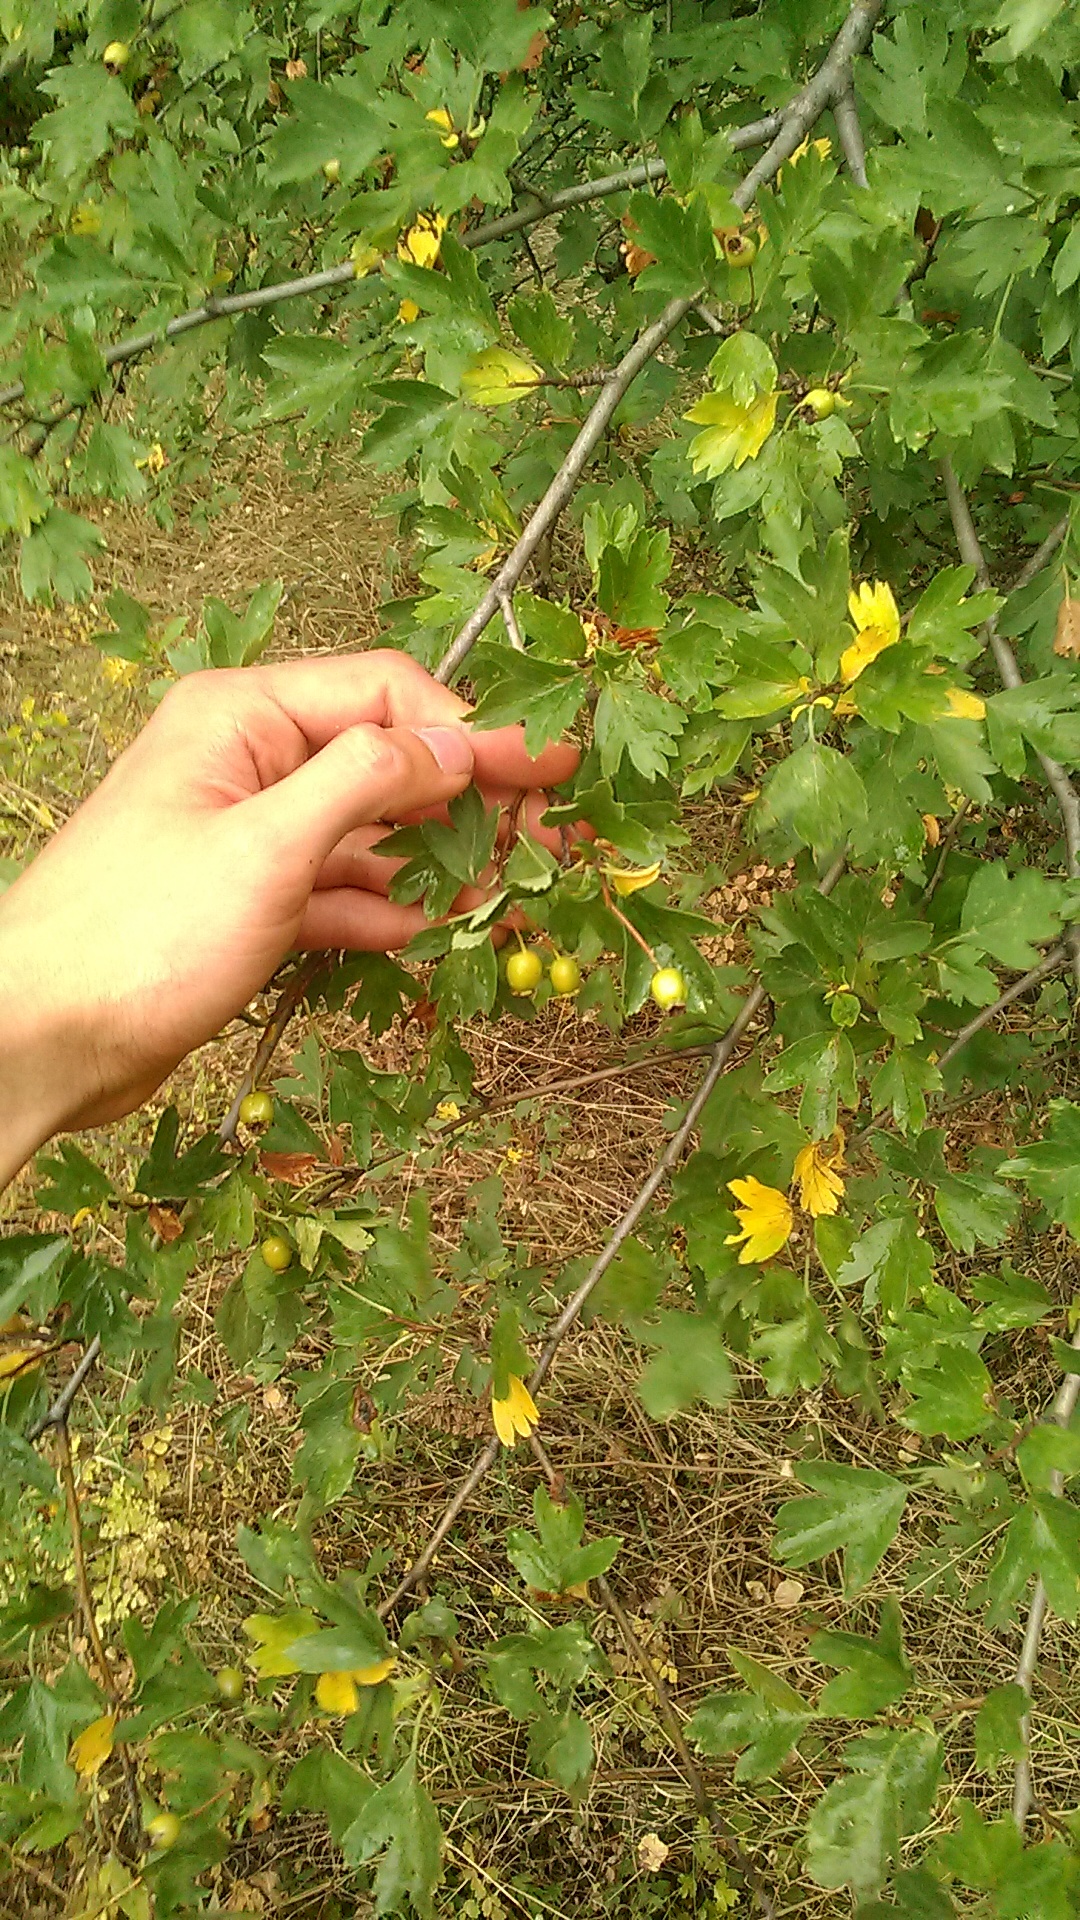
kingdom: Plantae
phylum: Tracheophyta
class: Magnoliopsida
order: Rosales
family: Rosaceae
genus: Crataegus
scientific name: Crataegus monogyna
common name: Hawthorn
